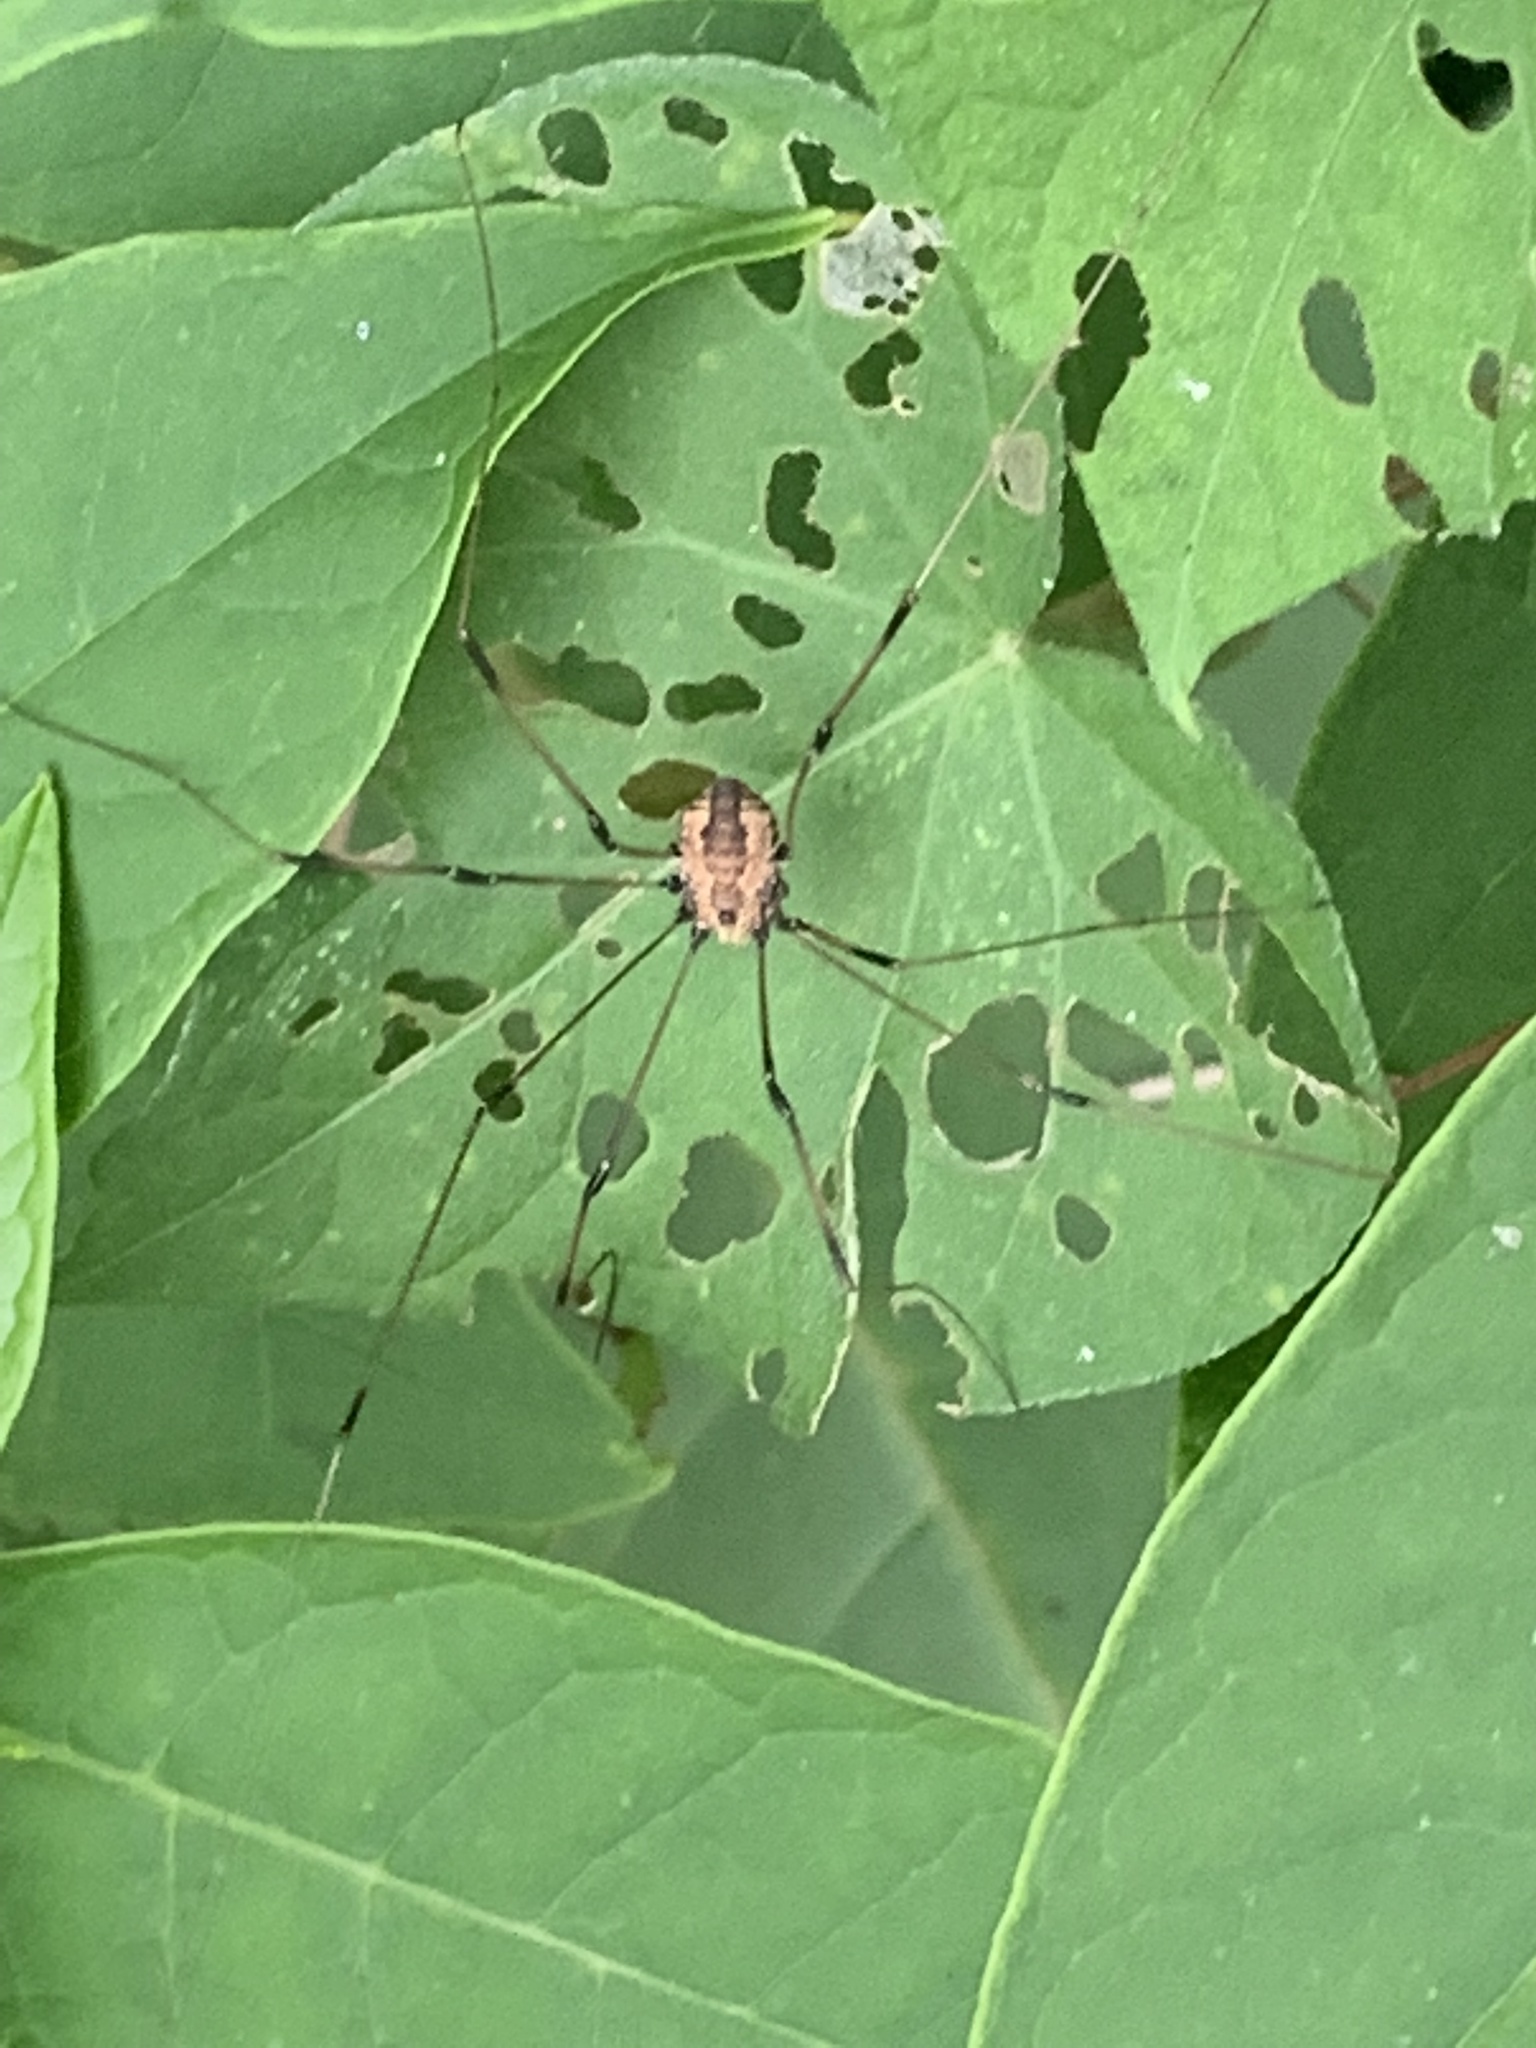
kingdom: Animalia
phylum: Arthropoda
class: Arachnida
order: Opiliones
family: Sclerosomatidae
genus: Leiobunum
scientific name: Leiobunum
